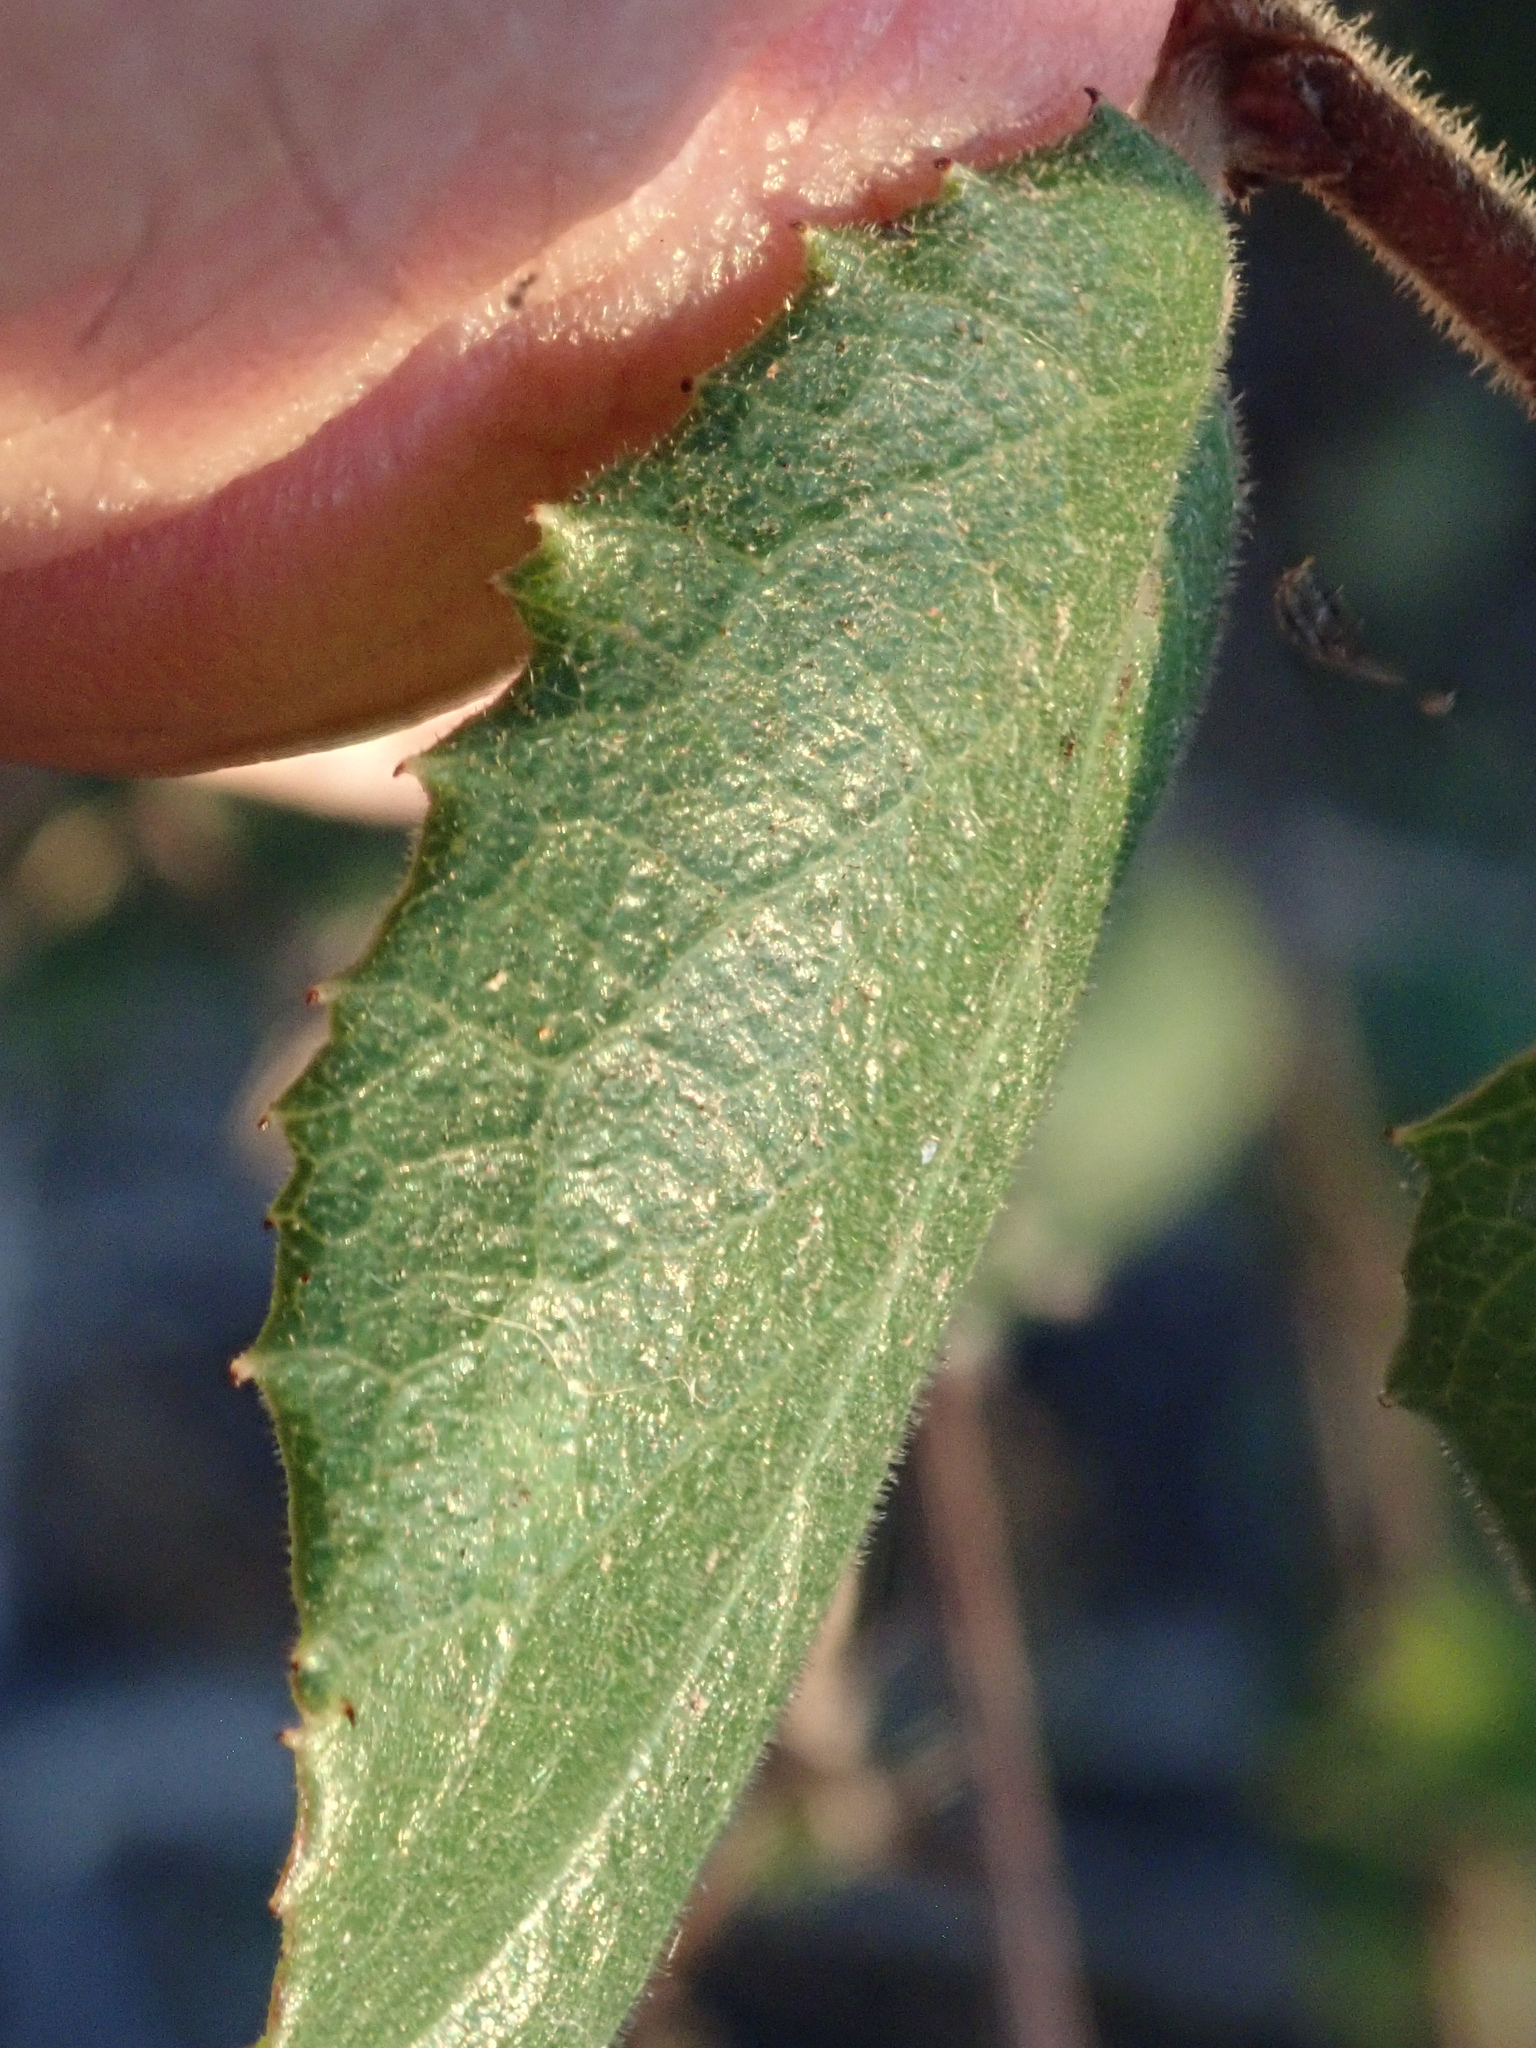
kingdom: Plantae
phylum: Tracheophyta
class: Magnoliopsida
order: Rosales
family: Rhamnaceae
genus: Endotropis
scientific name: Endotropis crocea
